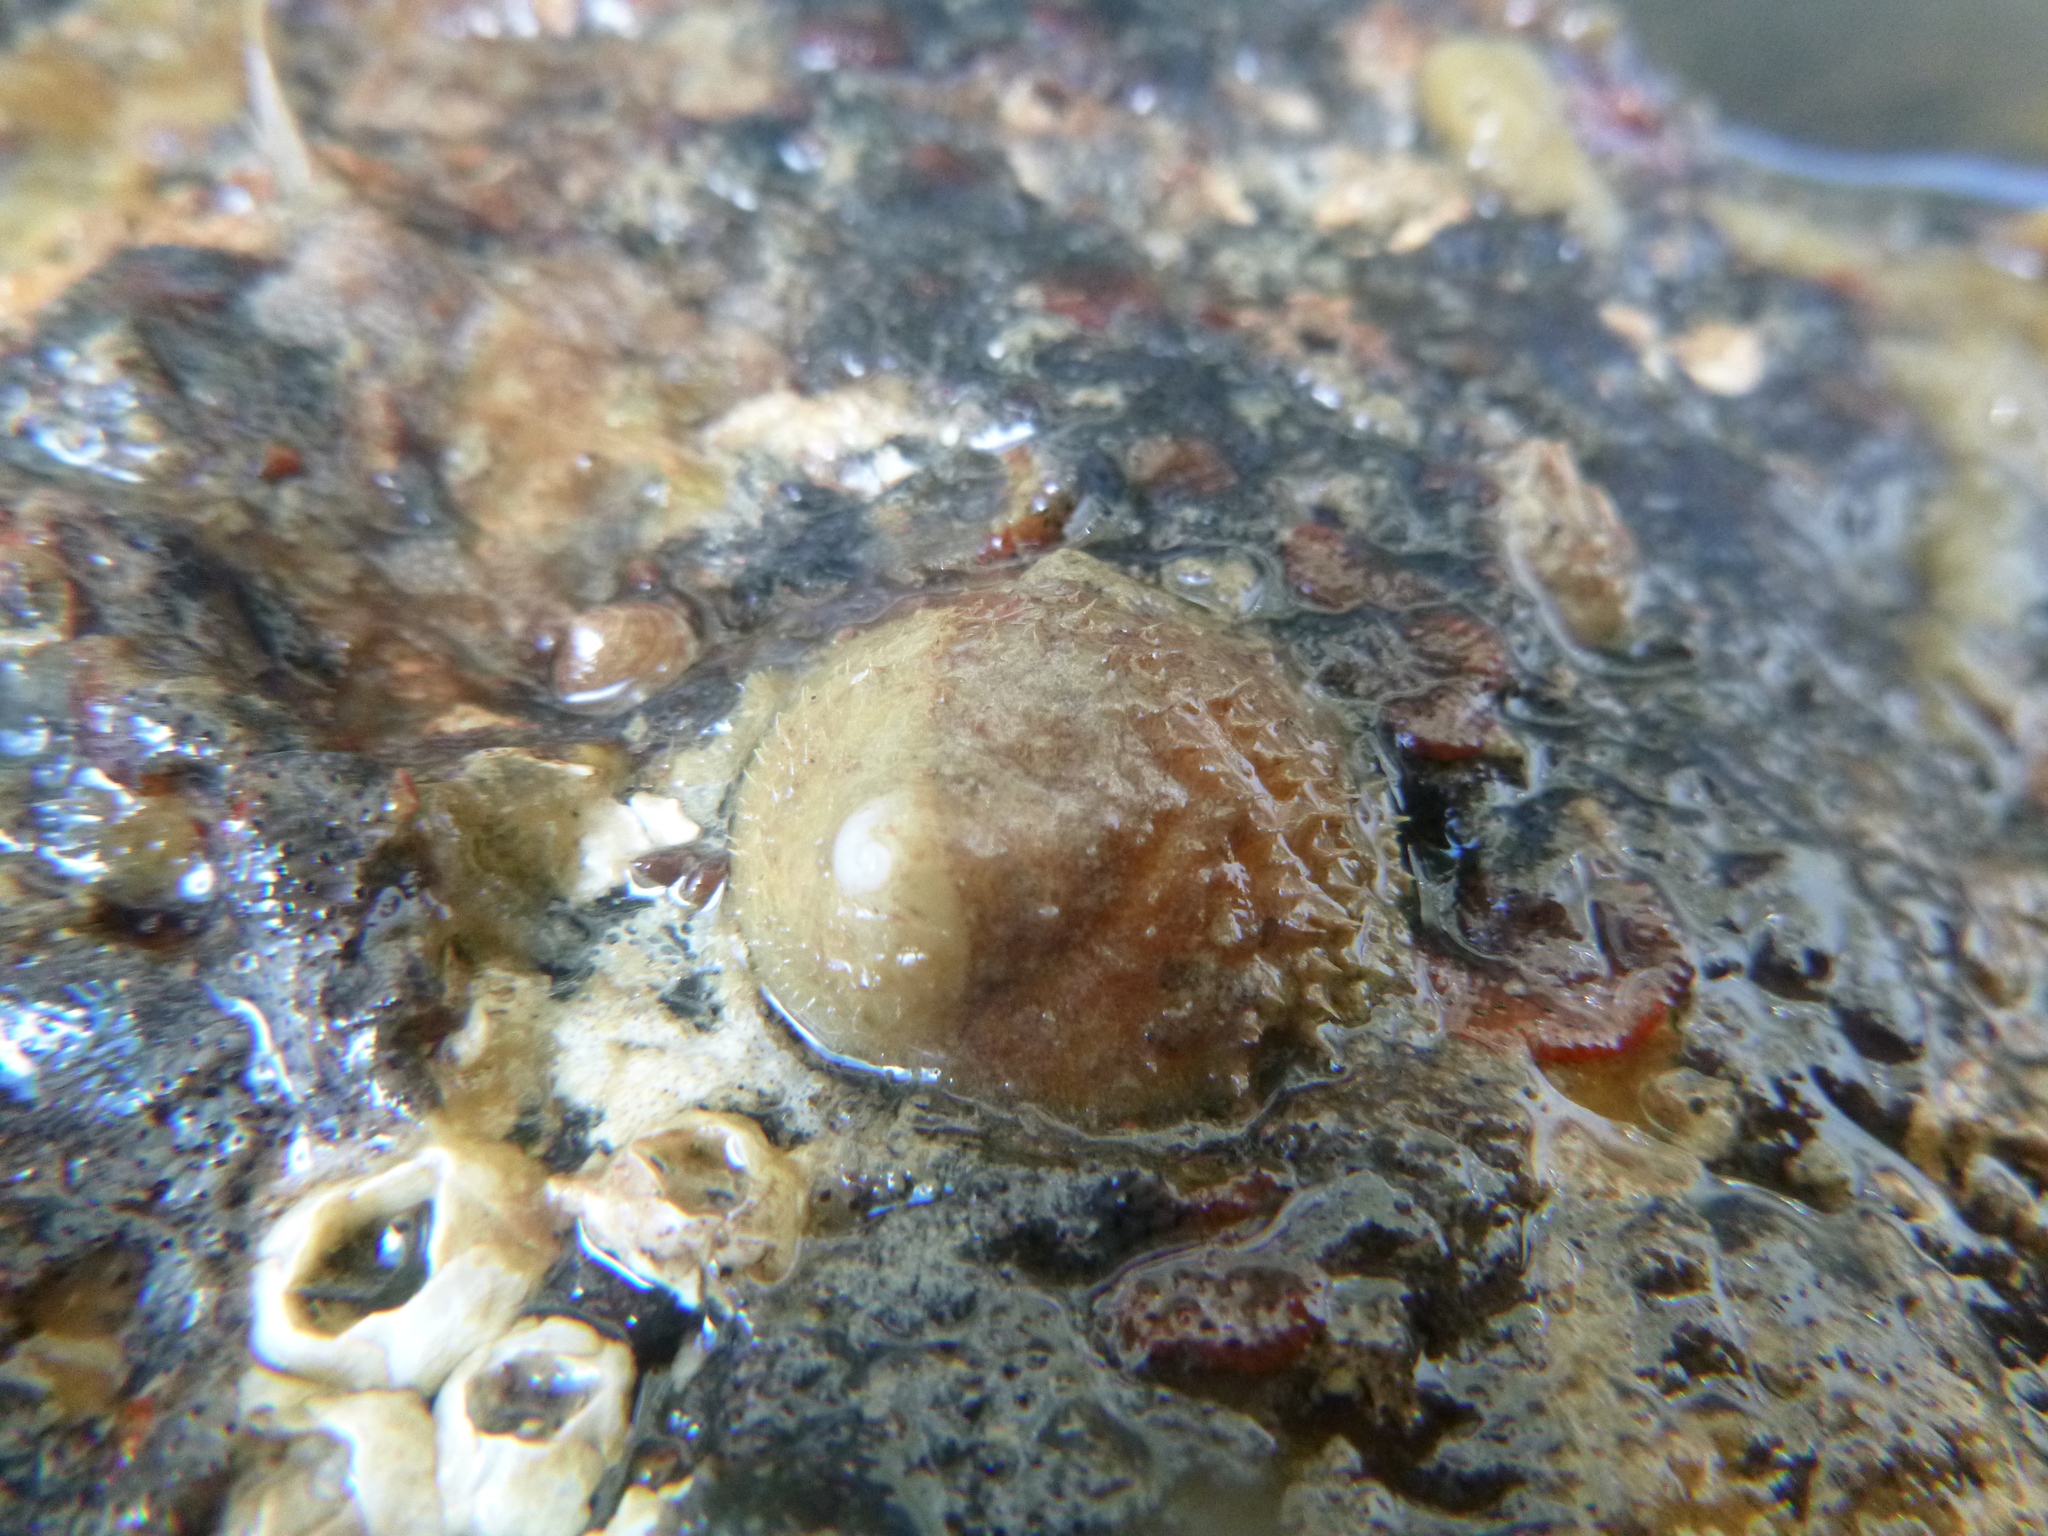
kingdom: Animalia
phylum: Mollusca
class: Gastropoda
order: Littorinimorpha
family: Calyptraeidae
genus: Sigapatella
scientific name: Sigapatella novaezelandiae
